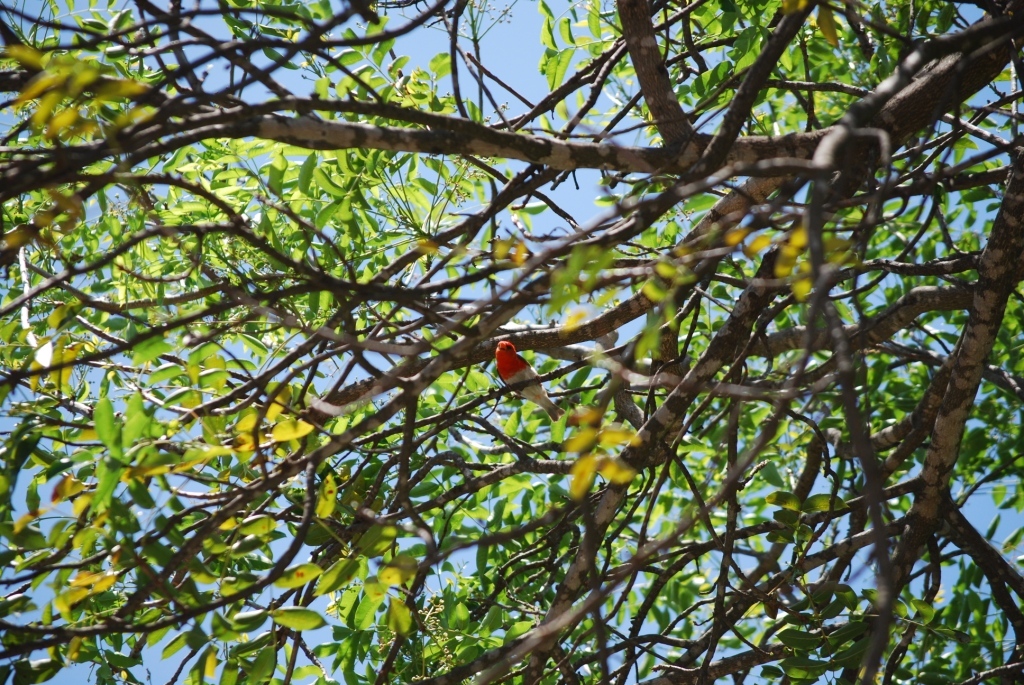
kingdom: Animalia
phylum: Chordata
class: Aves
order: Passeriformes
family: Ploceidae
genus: Anaplectes
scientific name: Anaplectes rubriceps
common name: Red-headed weaver
